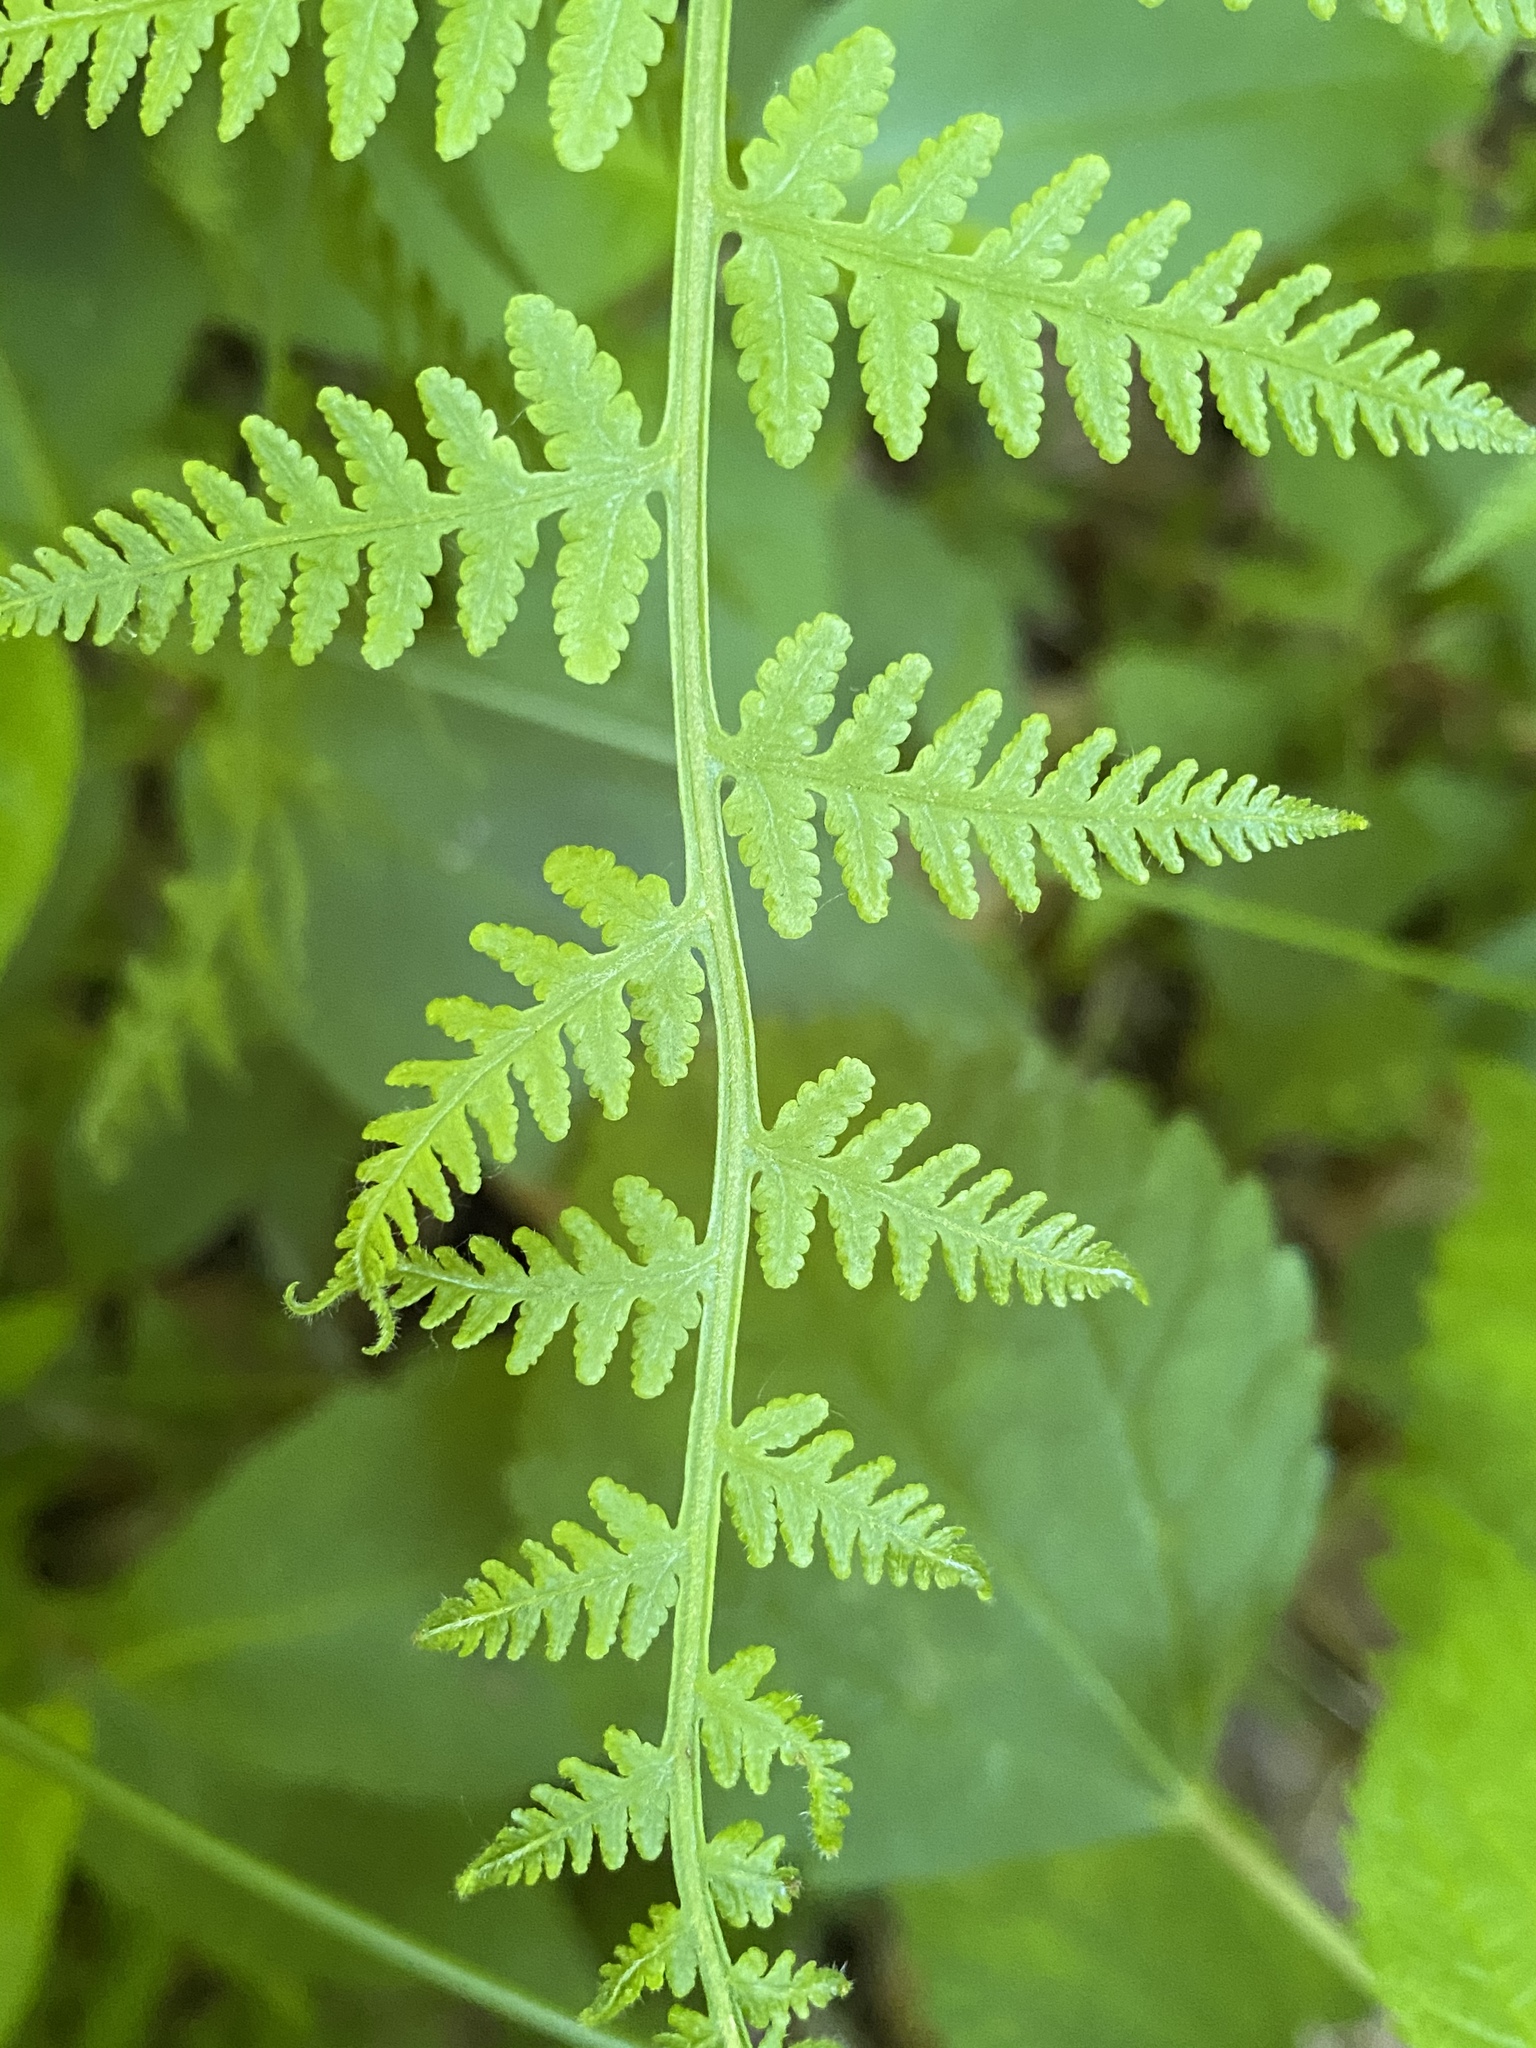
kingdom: Plantae
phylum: Tracheophyta
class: Polypodiopsida
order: Polypodiales
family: Thelypteridaceae
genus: Macrothelypteris
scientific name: Macrothelypteris torresiana
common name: Swordfern
